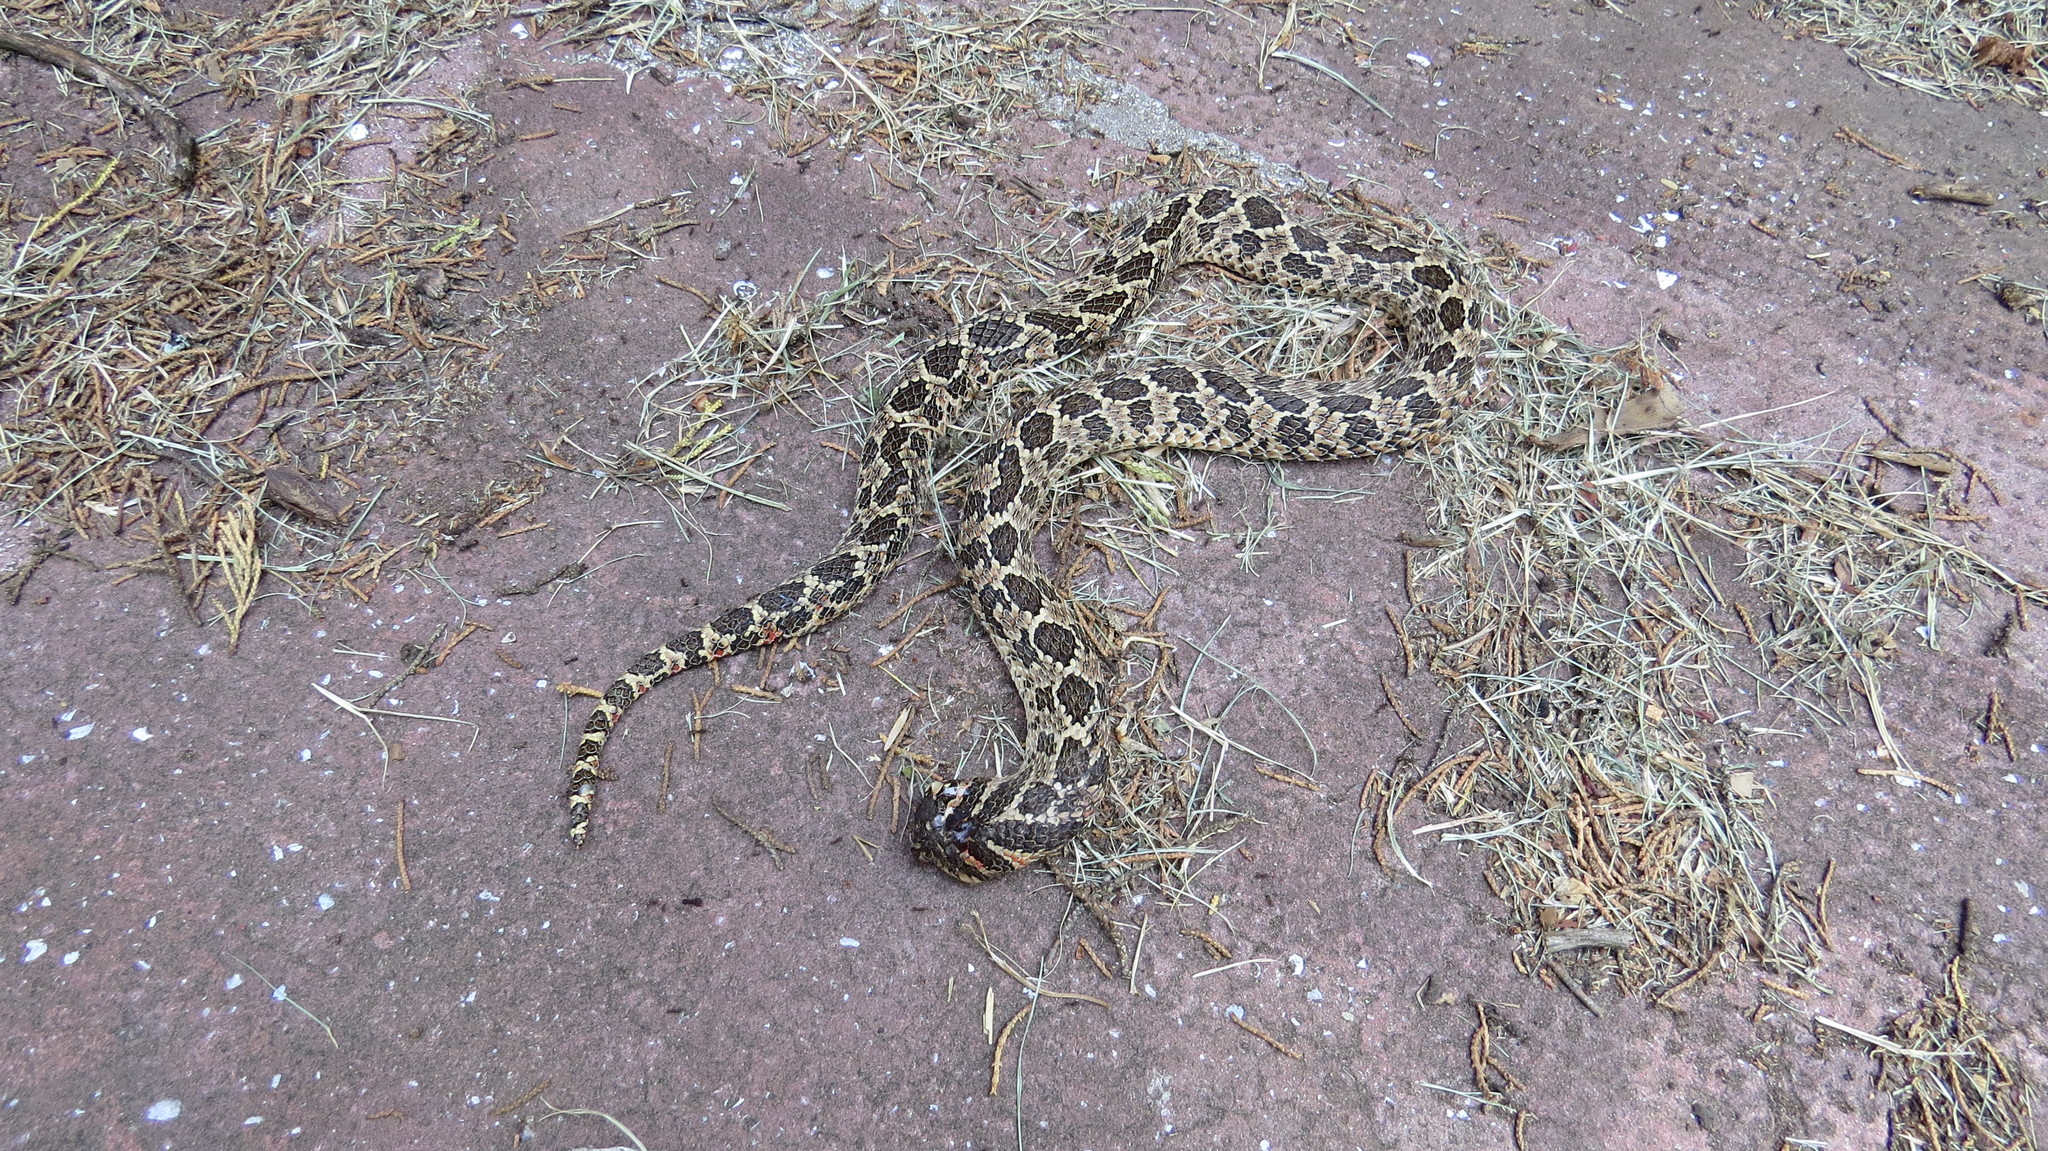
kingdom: Animalia
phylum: Chordata
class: Squamata
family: Colubridae
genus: Xenodon
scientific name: Xenodon dorbignyi
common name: South american hognose snake
